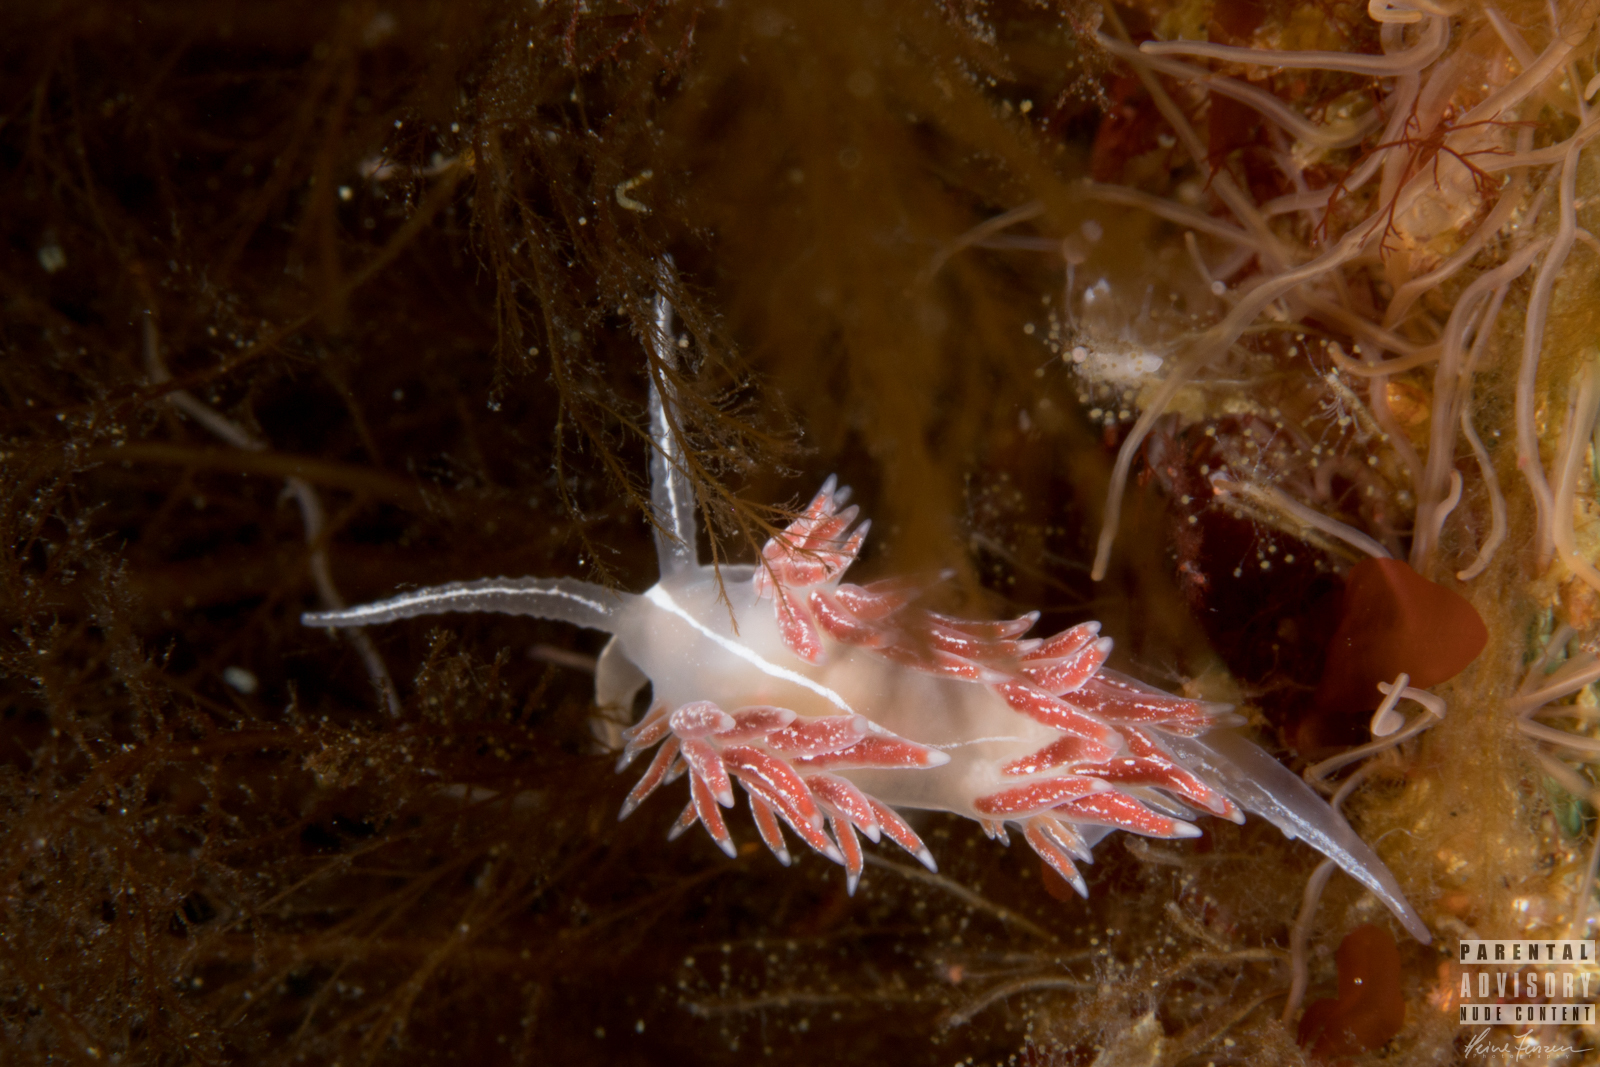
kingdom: Animalia
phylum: Mollusca
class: Gastropoda
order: Nudibranchia
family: Coryphellidae
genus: Coryphella
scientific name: Coryphella chriskaugei
